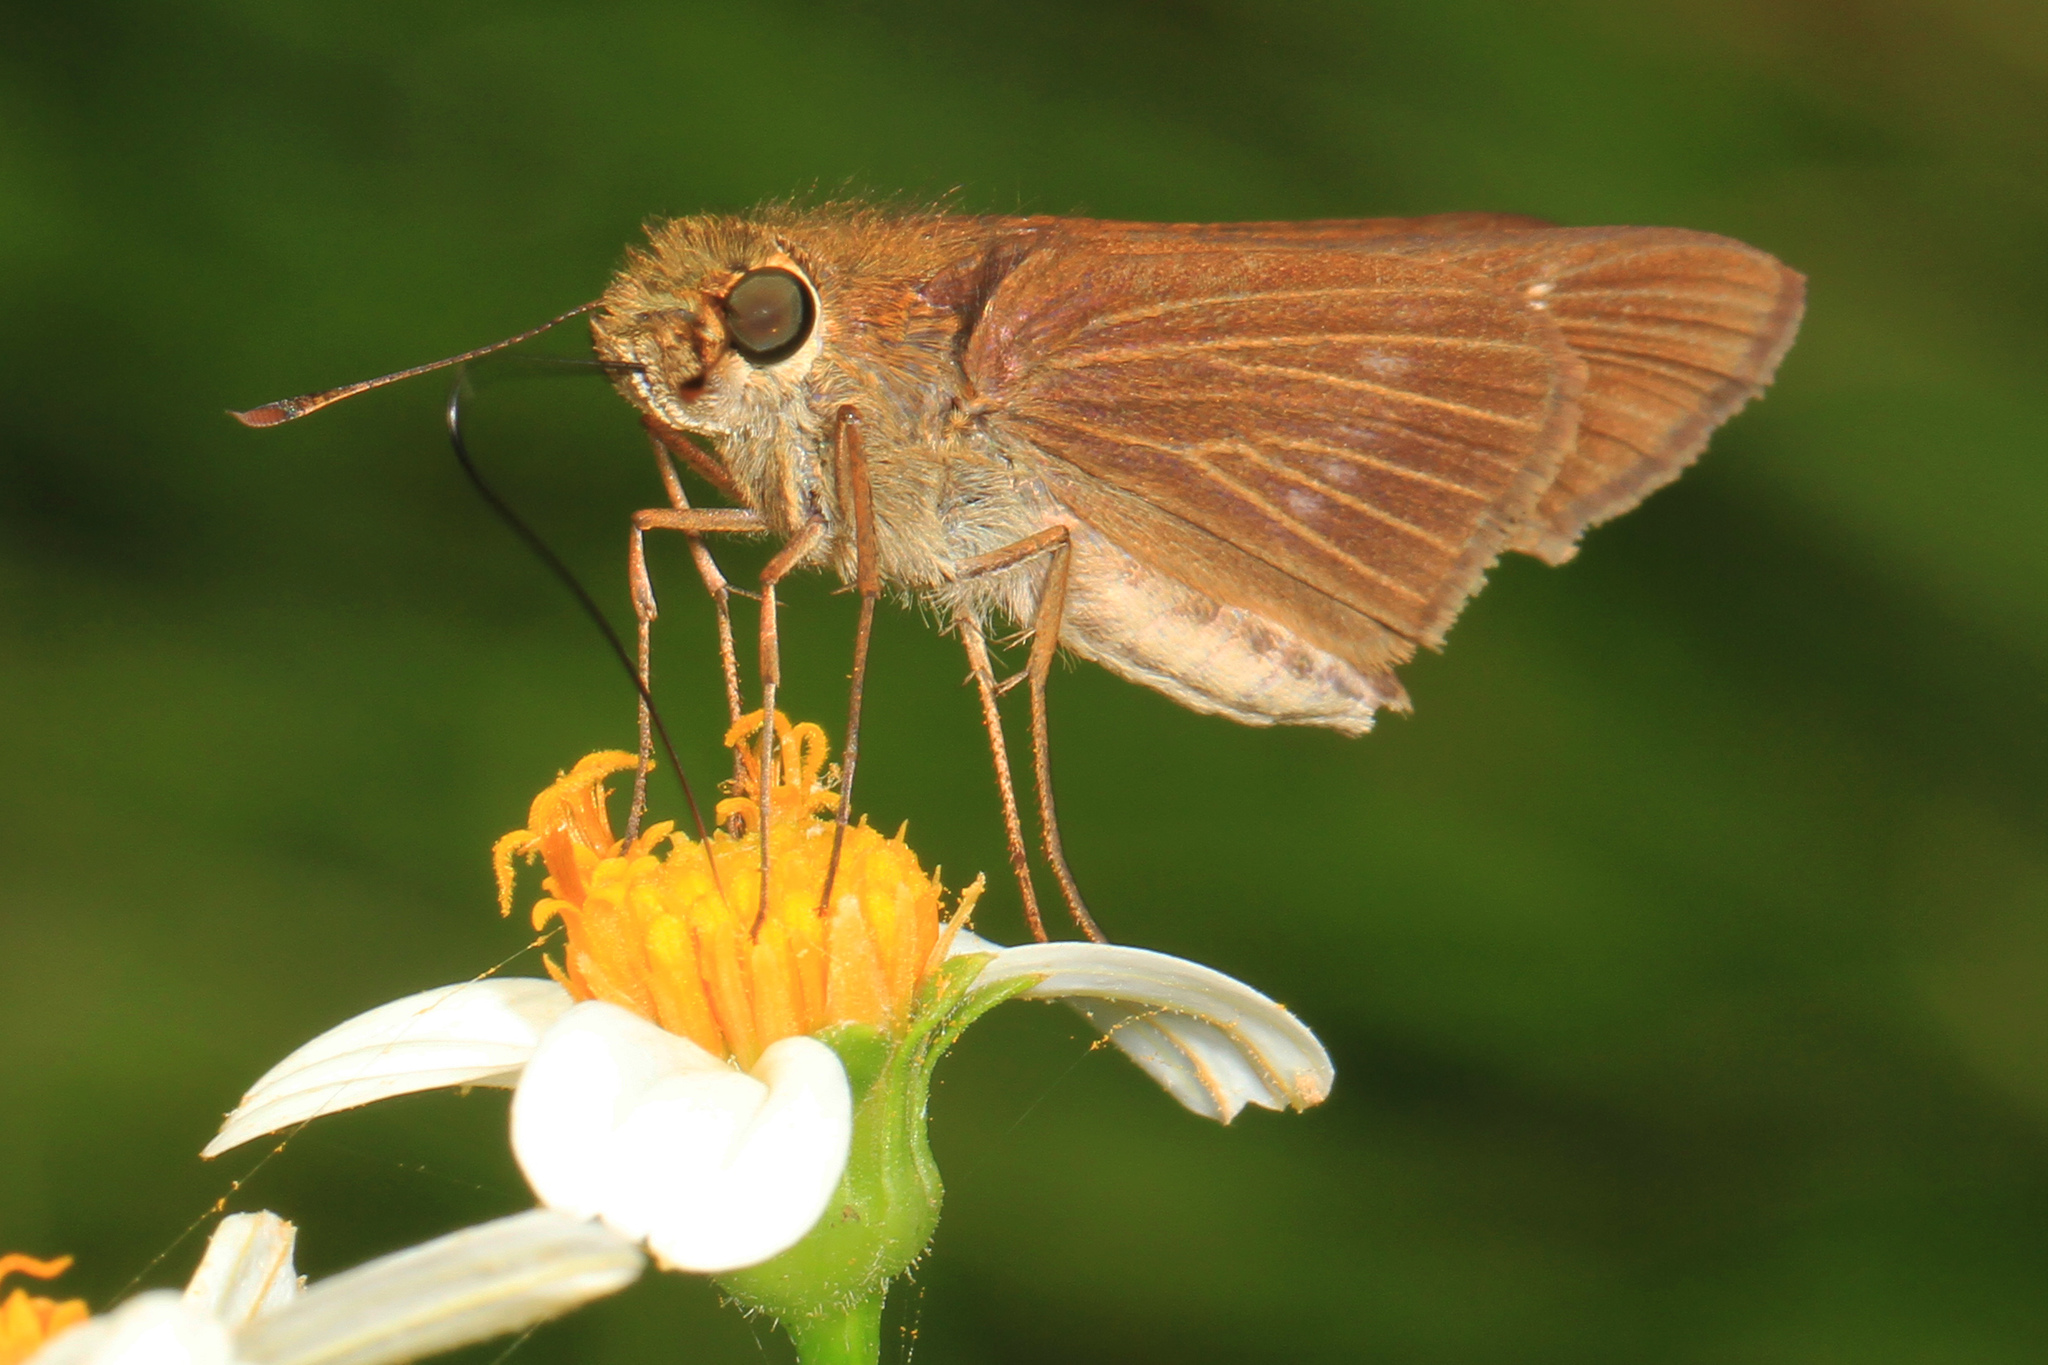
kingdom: Animalia
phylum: Arthropoda
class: Insecta
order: Lepidoptera
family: Hesperiidae
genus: Panoquina
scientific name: Panoquina ocola
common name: Ocola skipper
